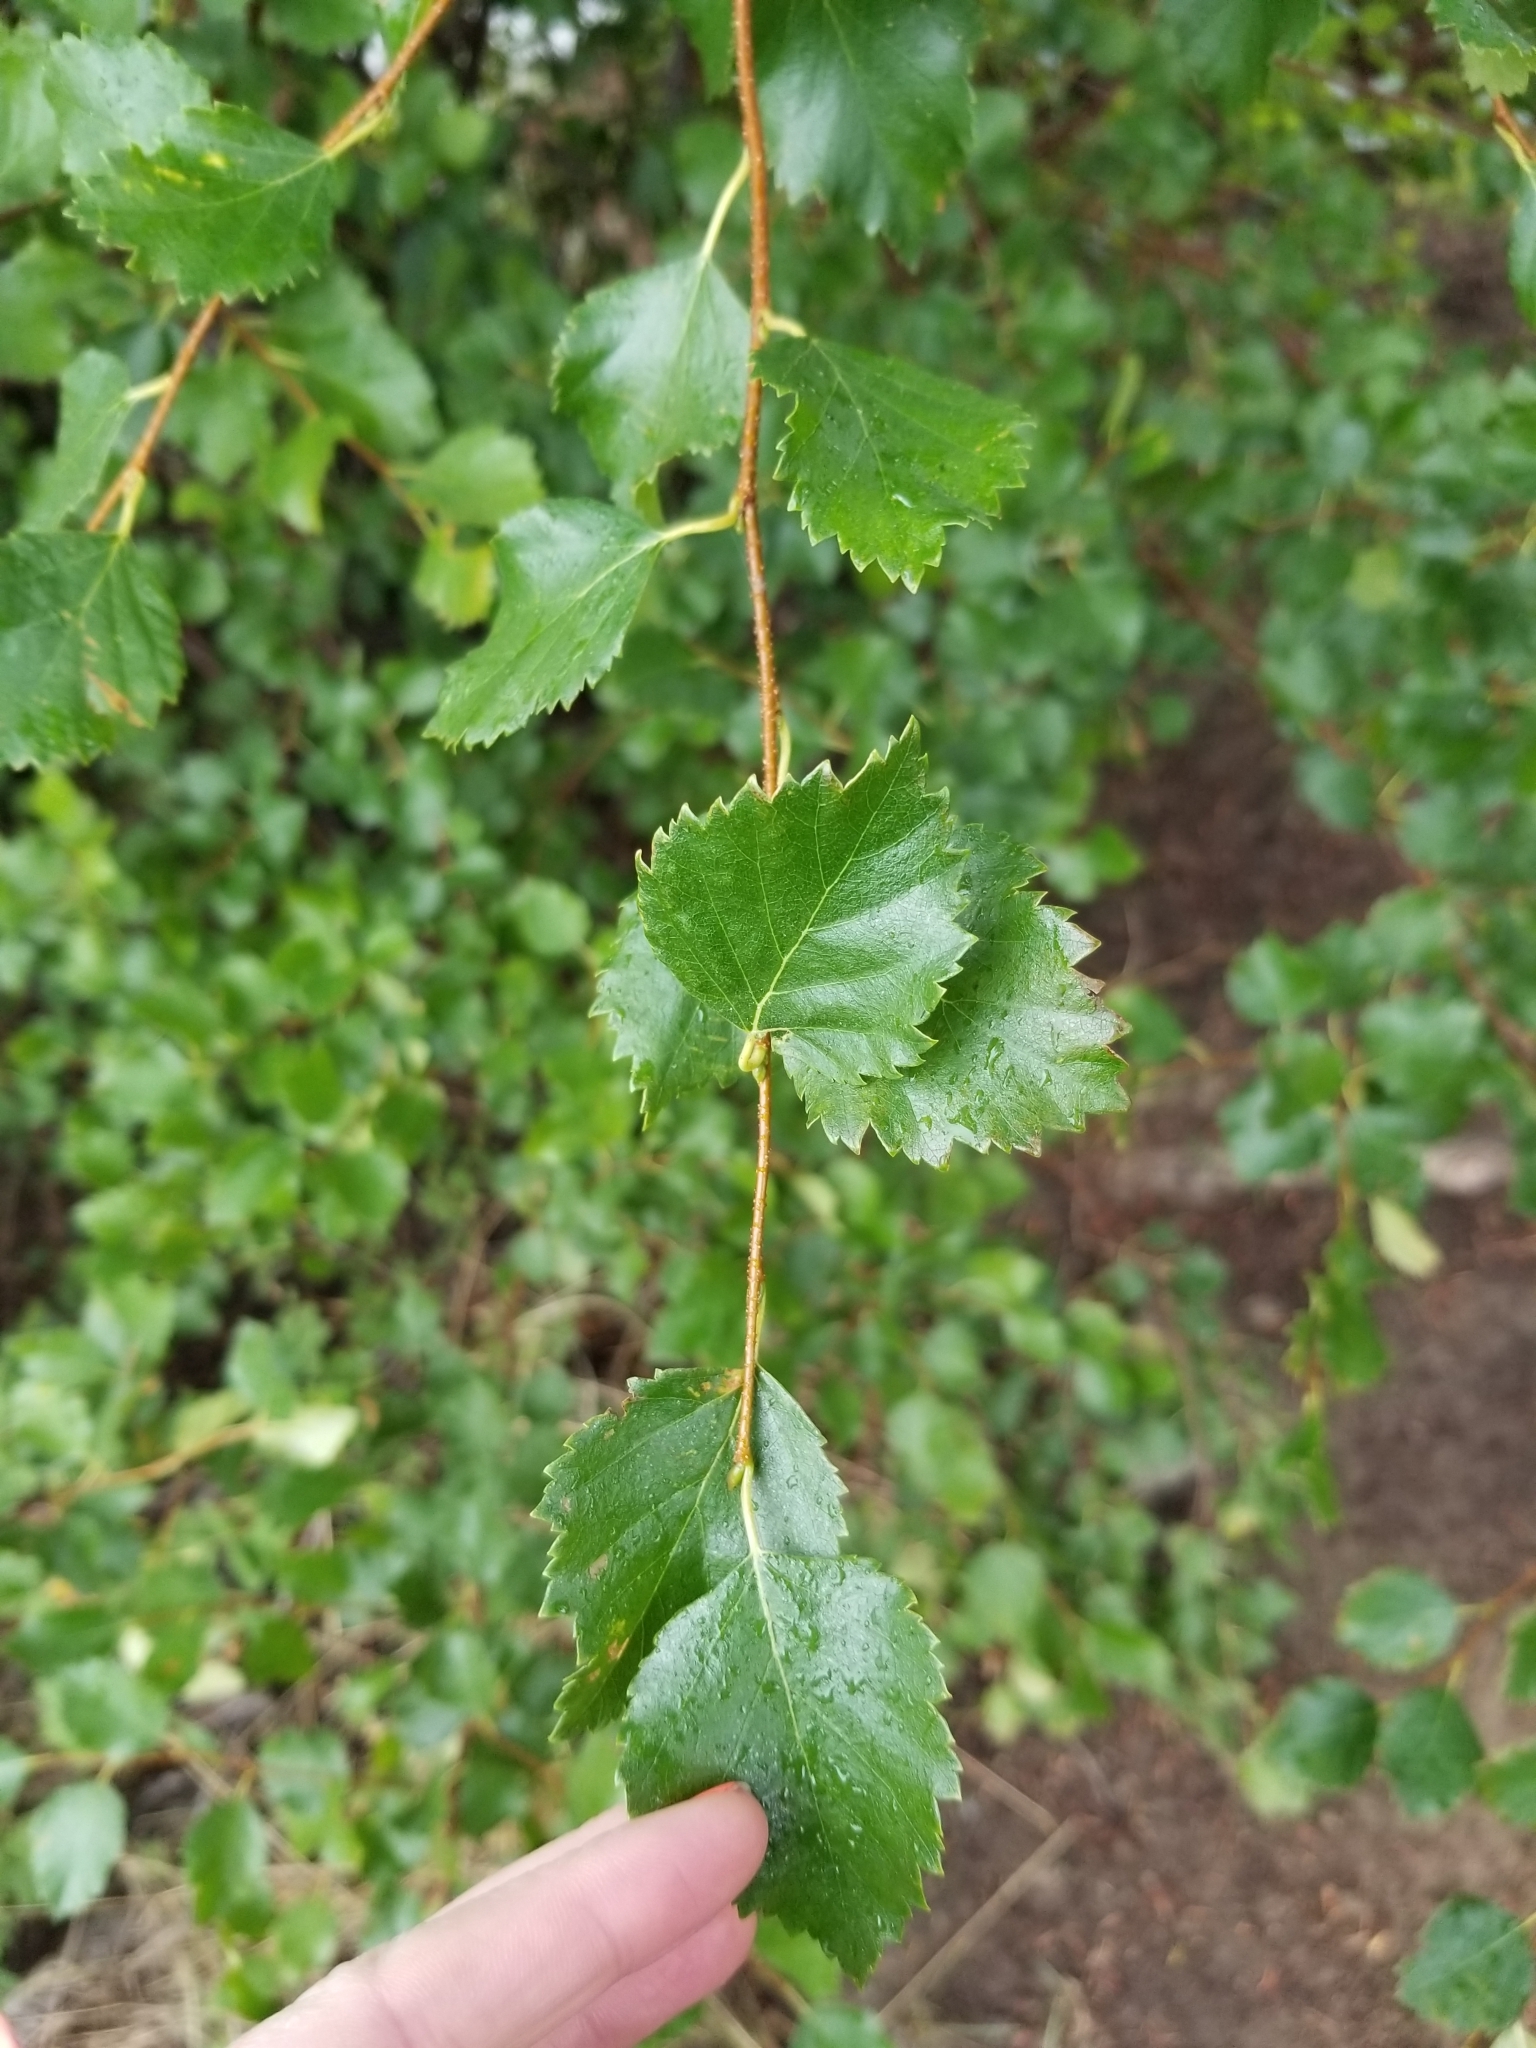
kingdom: Plantae
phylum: Tracheophyta
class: Magnoliopsida
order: Fagales
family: Betulaceae
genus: Betula
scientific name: Betula occidentalis
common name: River birch
